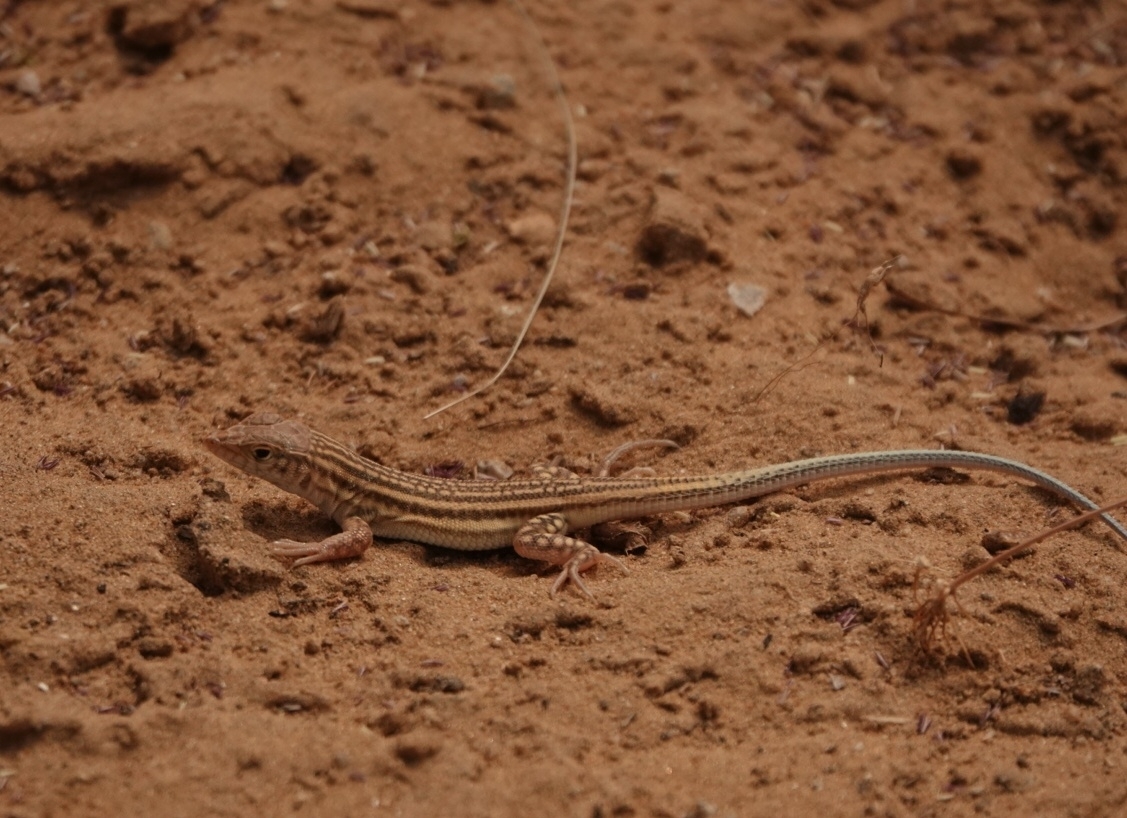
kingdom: Animalia
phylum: Chordata
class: Squamata
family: Lacertidae
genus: Acanthodactylus
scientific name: Acanthodactylus cantoris
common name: Indian fringe-fingered lizard
